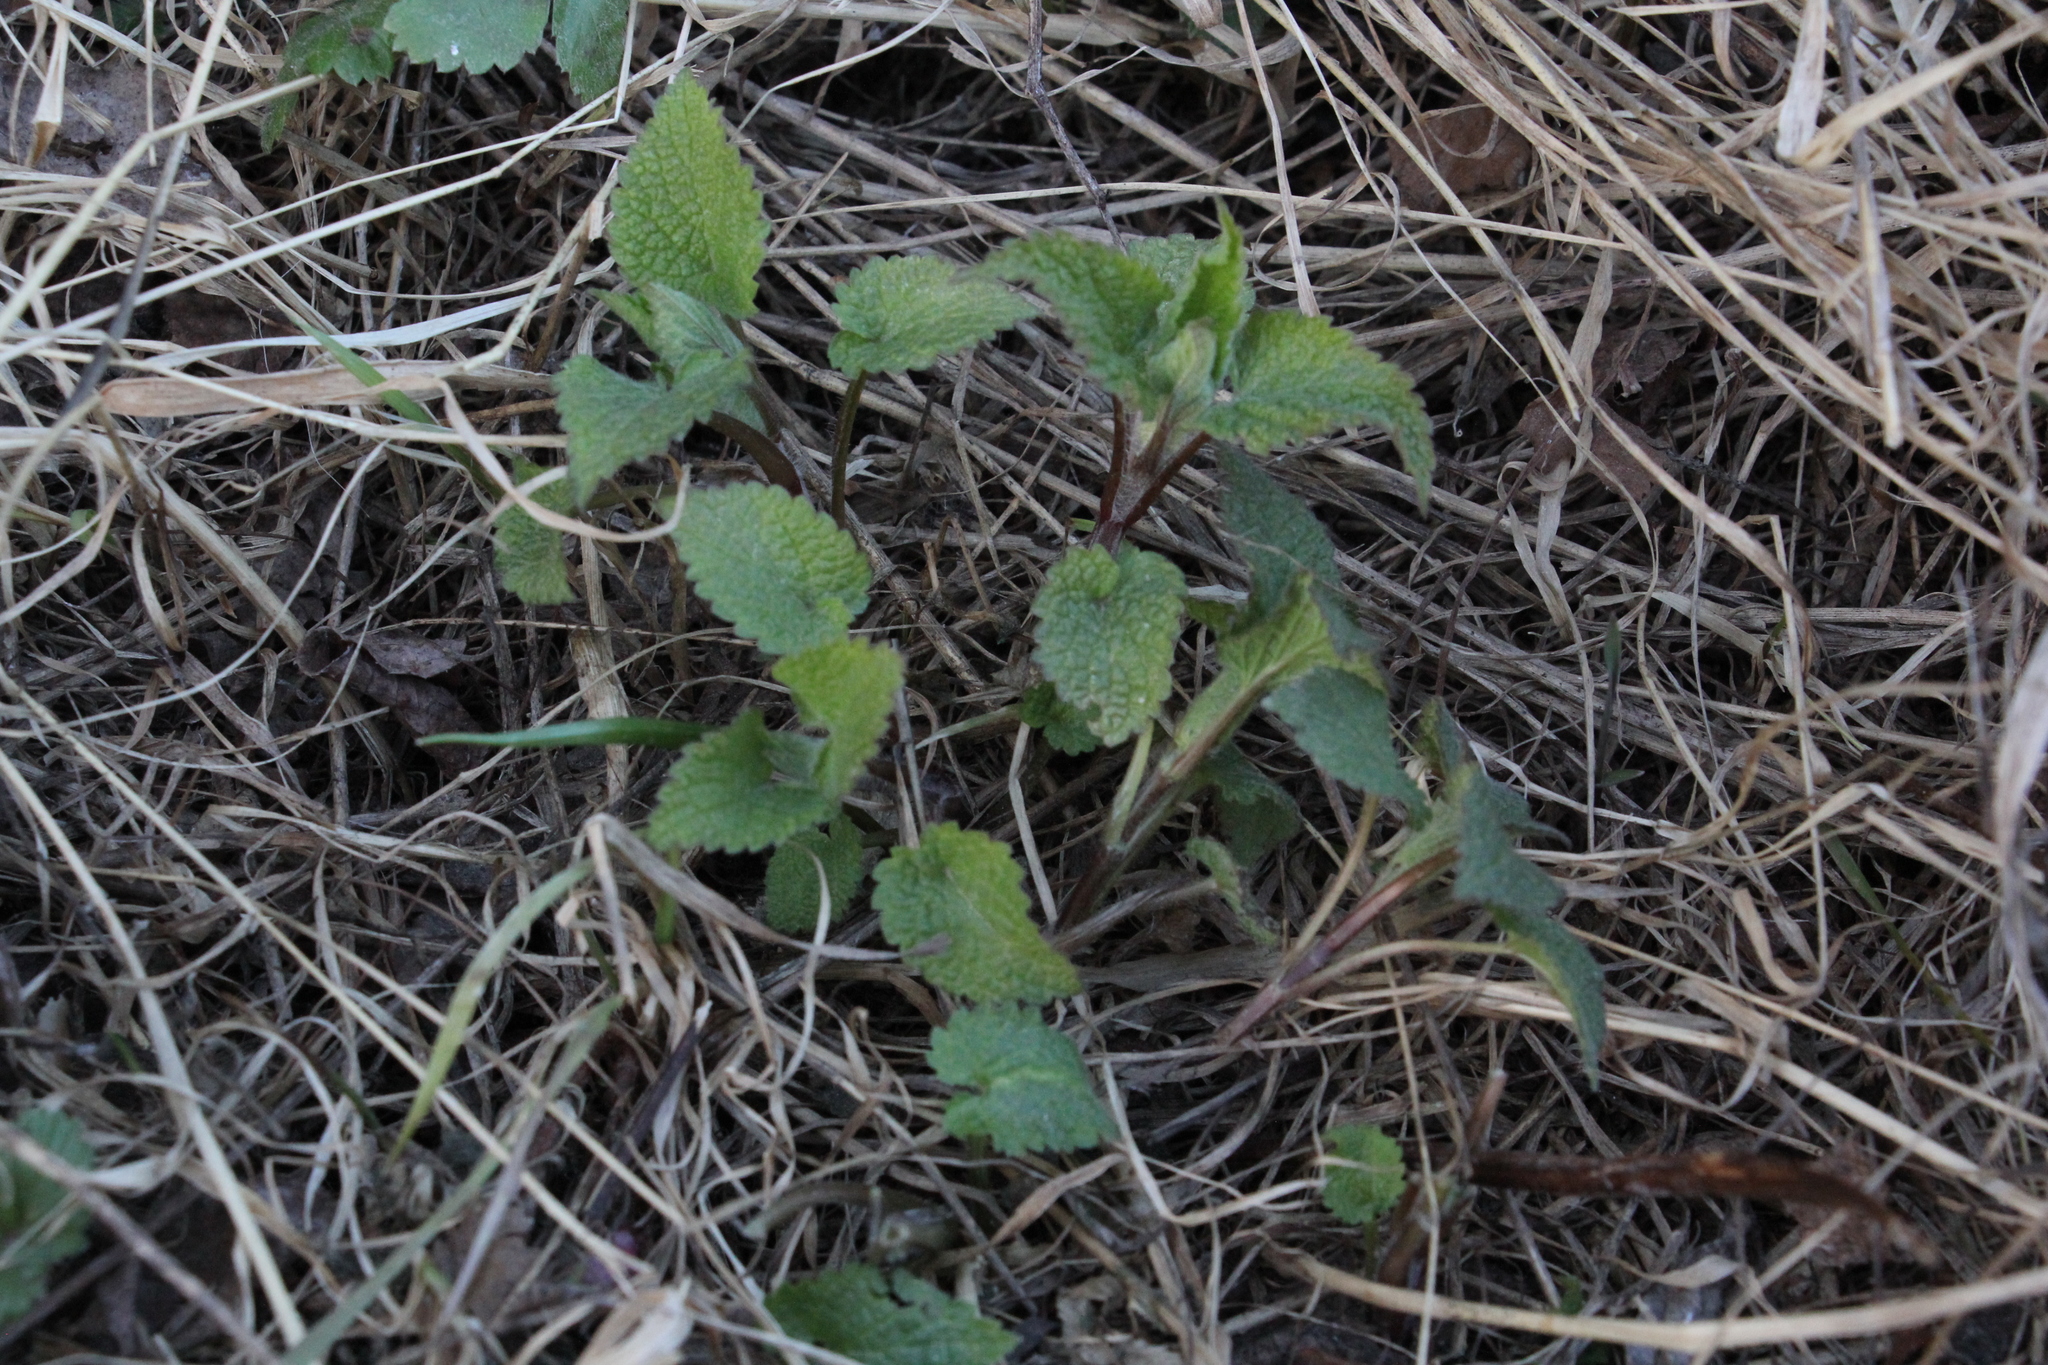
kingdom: Plantae
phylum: Tracheophyta
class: Magnoliopsida
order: Lamiales
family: Lamiaceae
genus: Lamium
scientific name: Lamium album
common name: White dead-nettle
